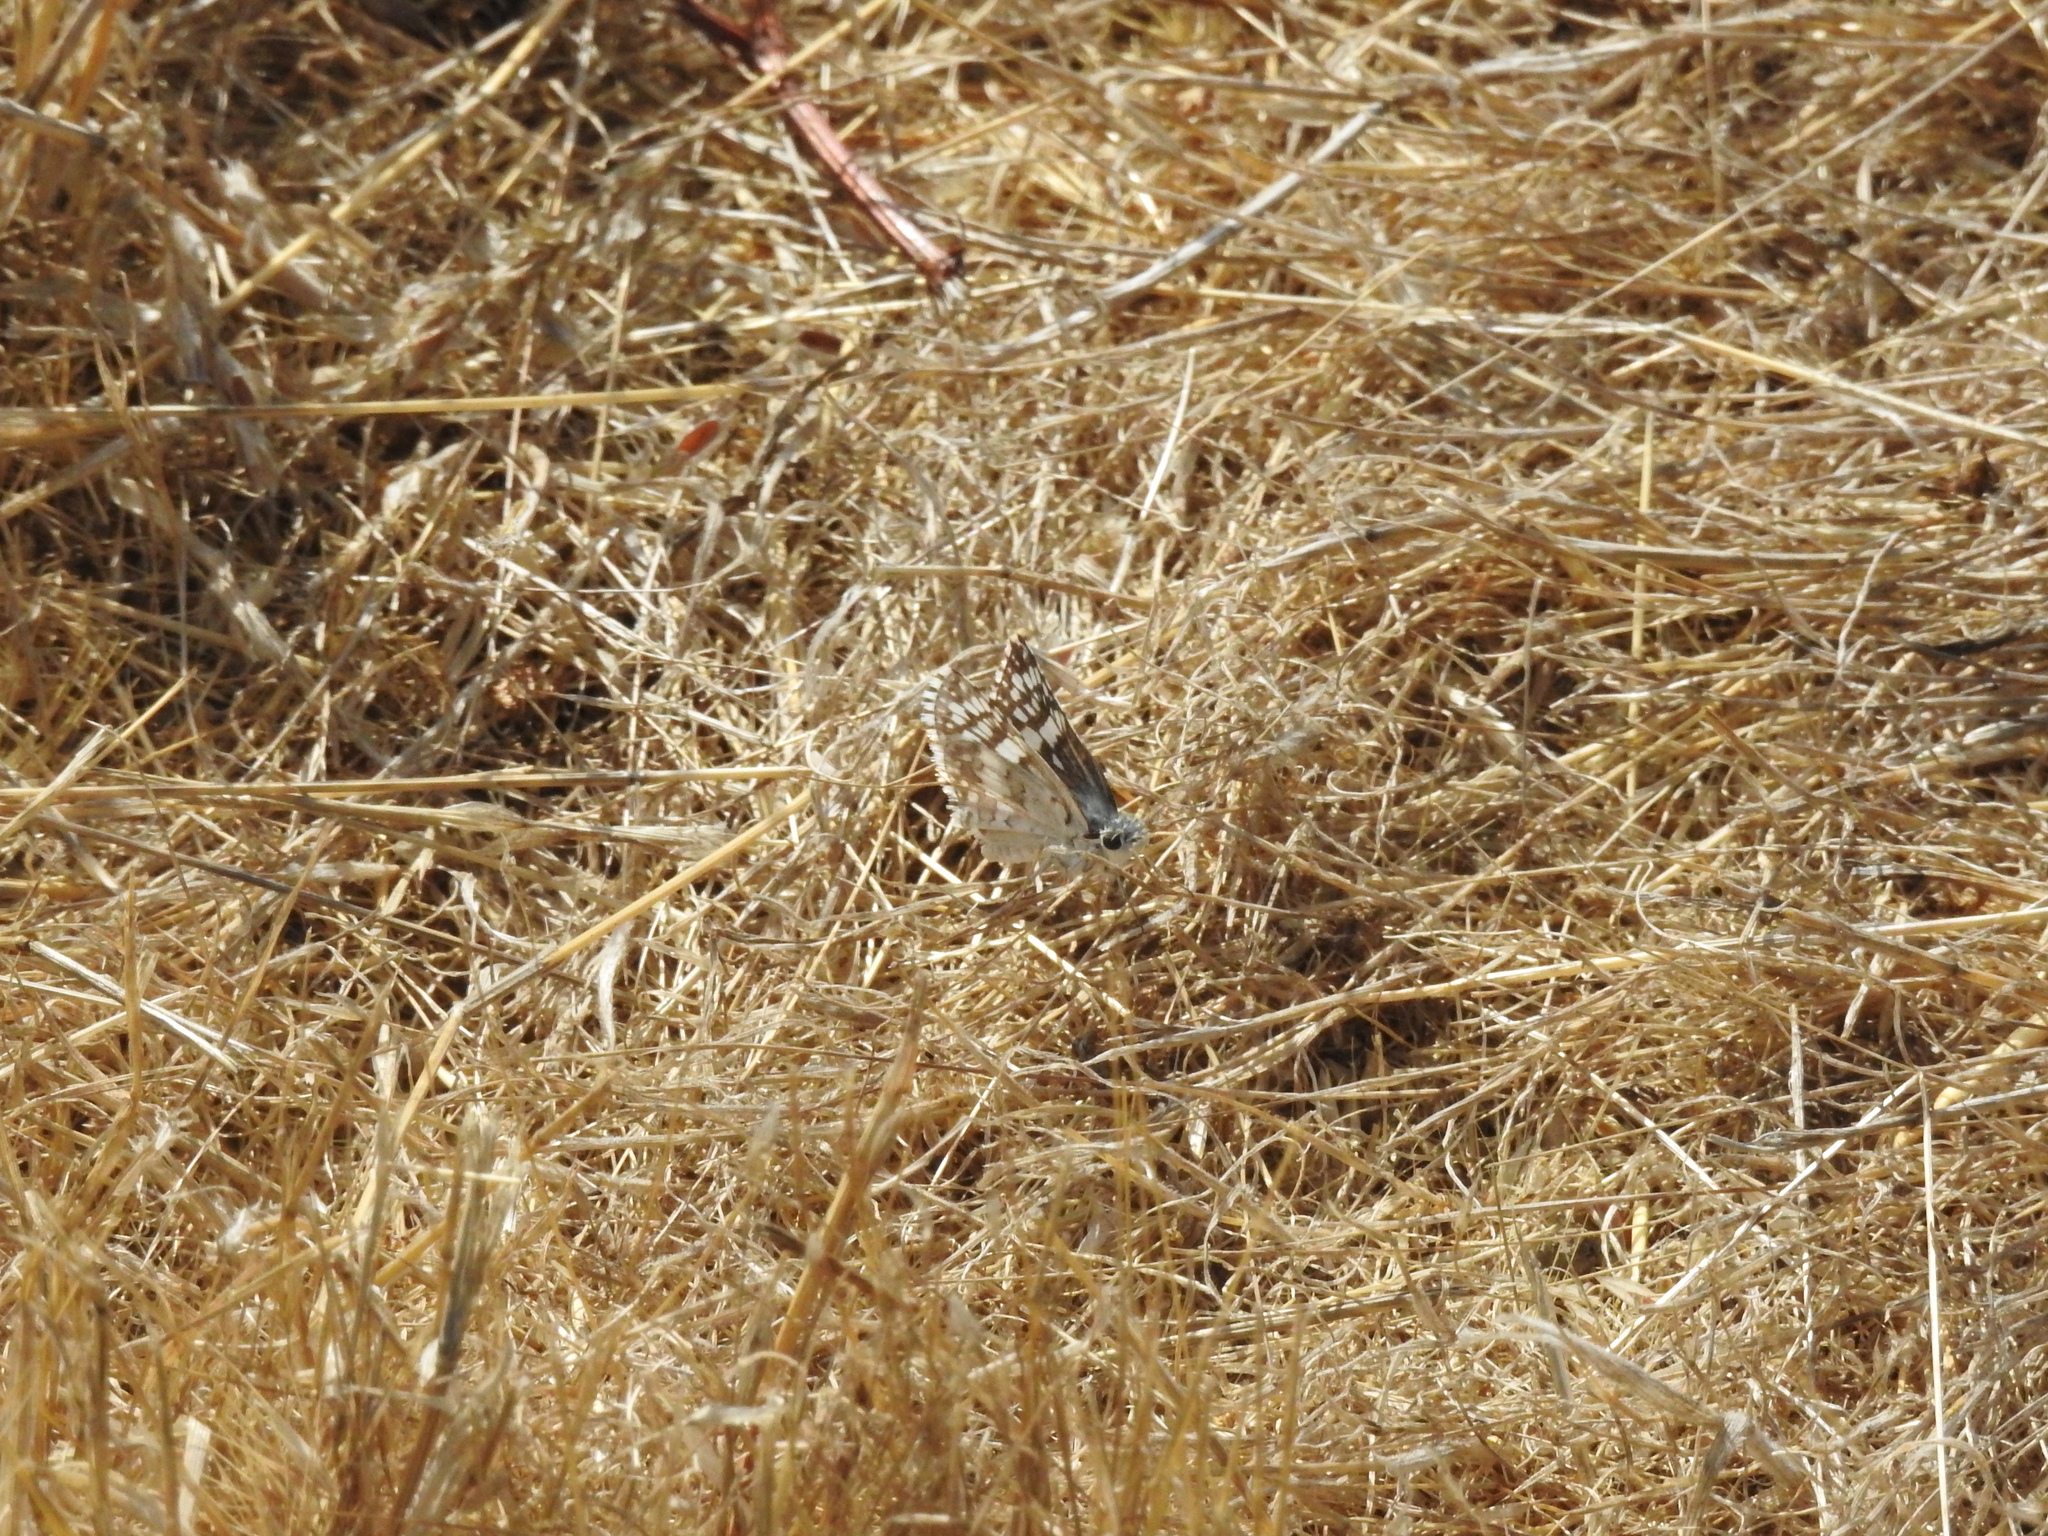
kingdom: Animalia
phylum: Arthropoda
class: Insecta
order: Lepidoptera
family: Hesperiidae
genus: Burnsius
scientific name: Burnsius communis
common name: Common checkered-skipper
